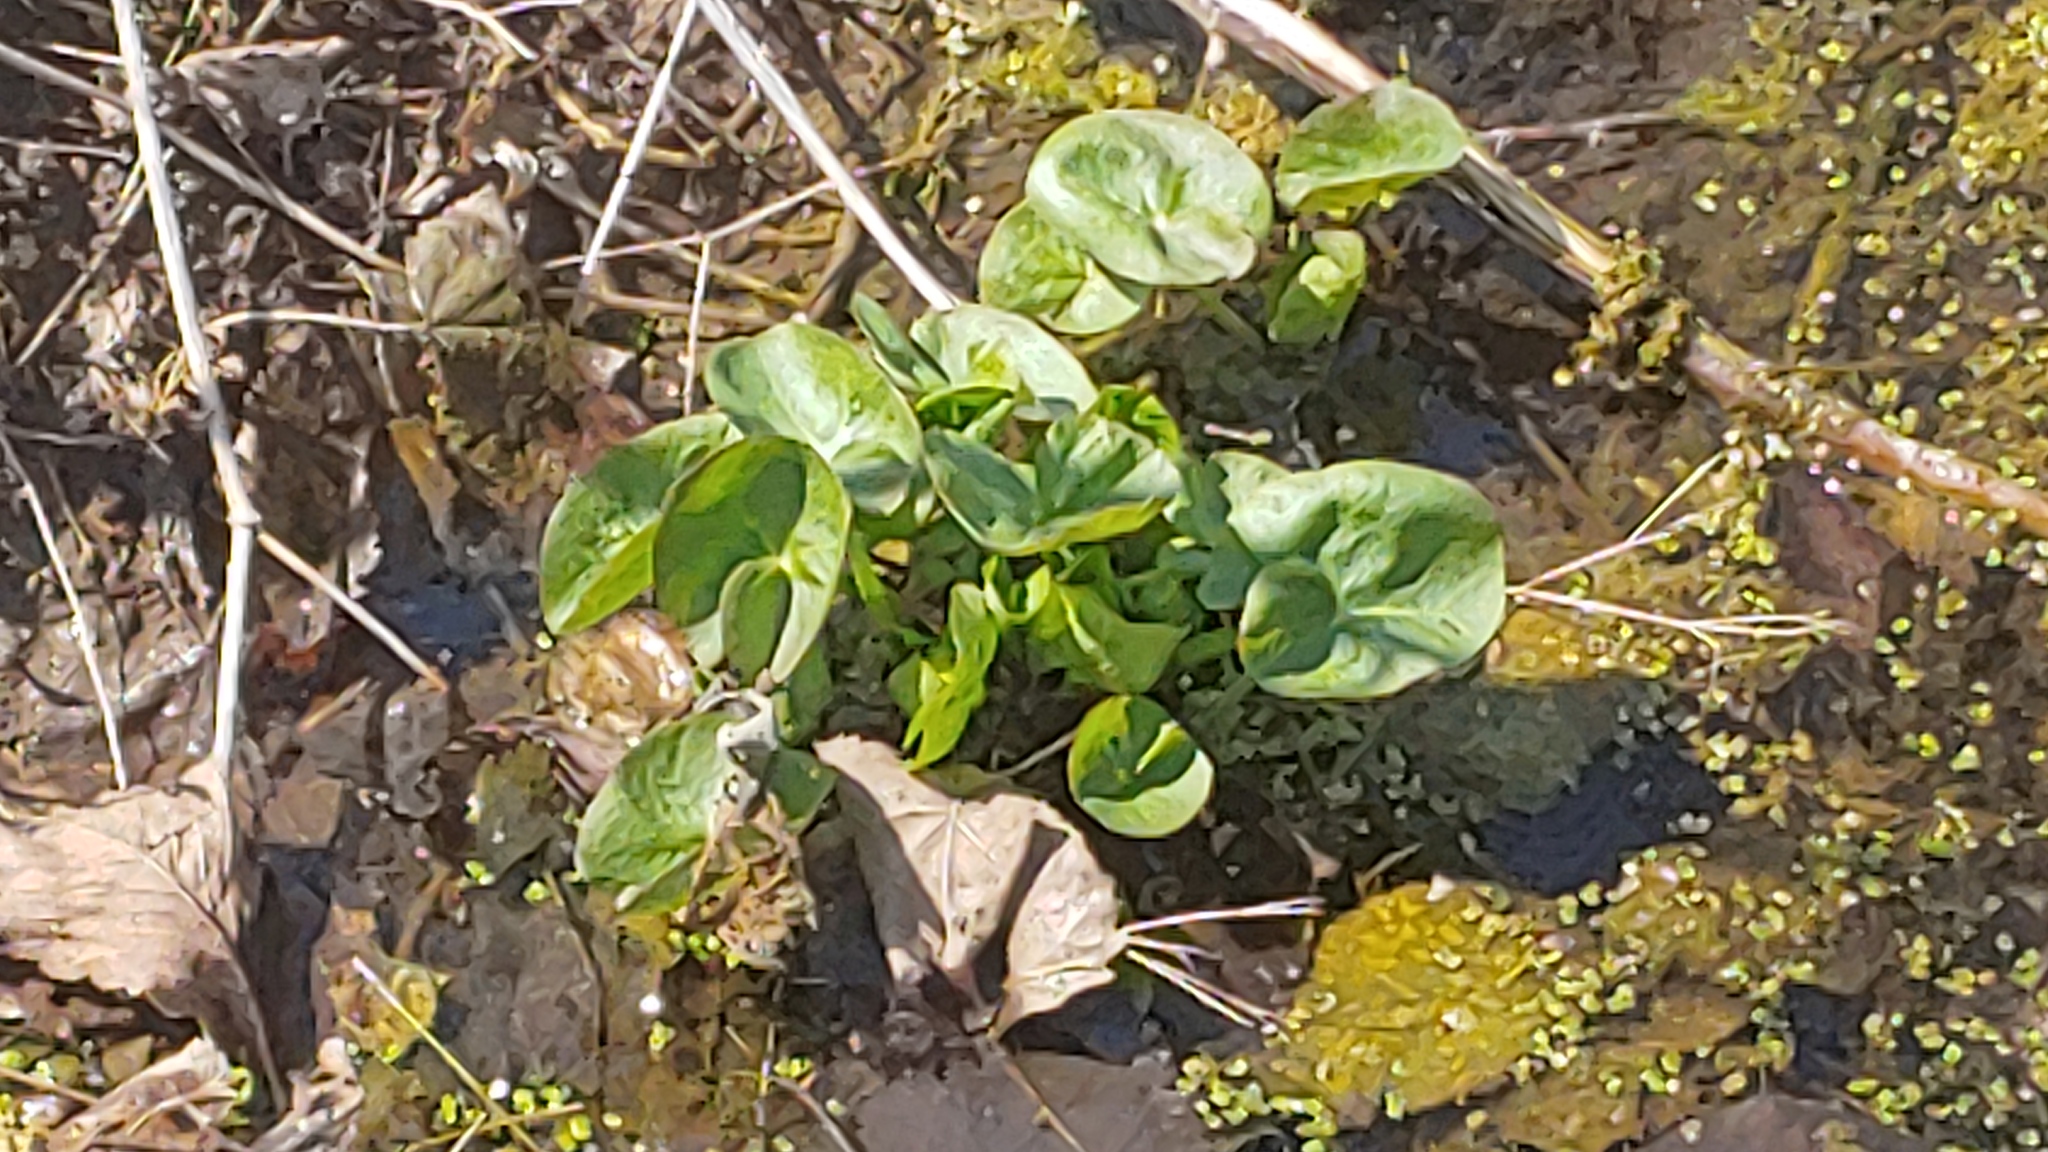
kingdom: Plantae
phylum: Tracheophyta
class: Magnoliopsida
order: Ranunculales
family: Ranunculaceae
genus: Caltha
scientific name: Caltha palustris
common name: Marsh marigold
